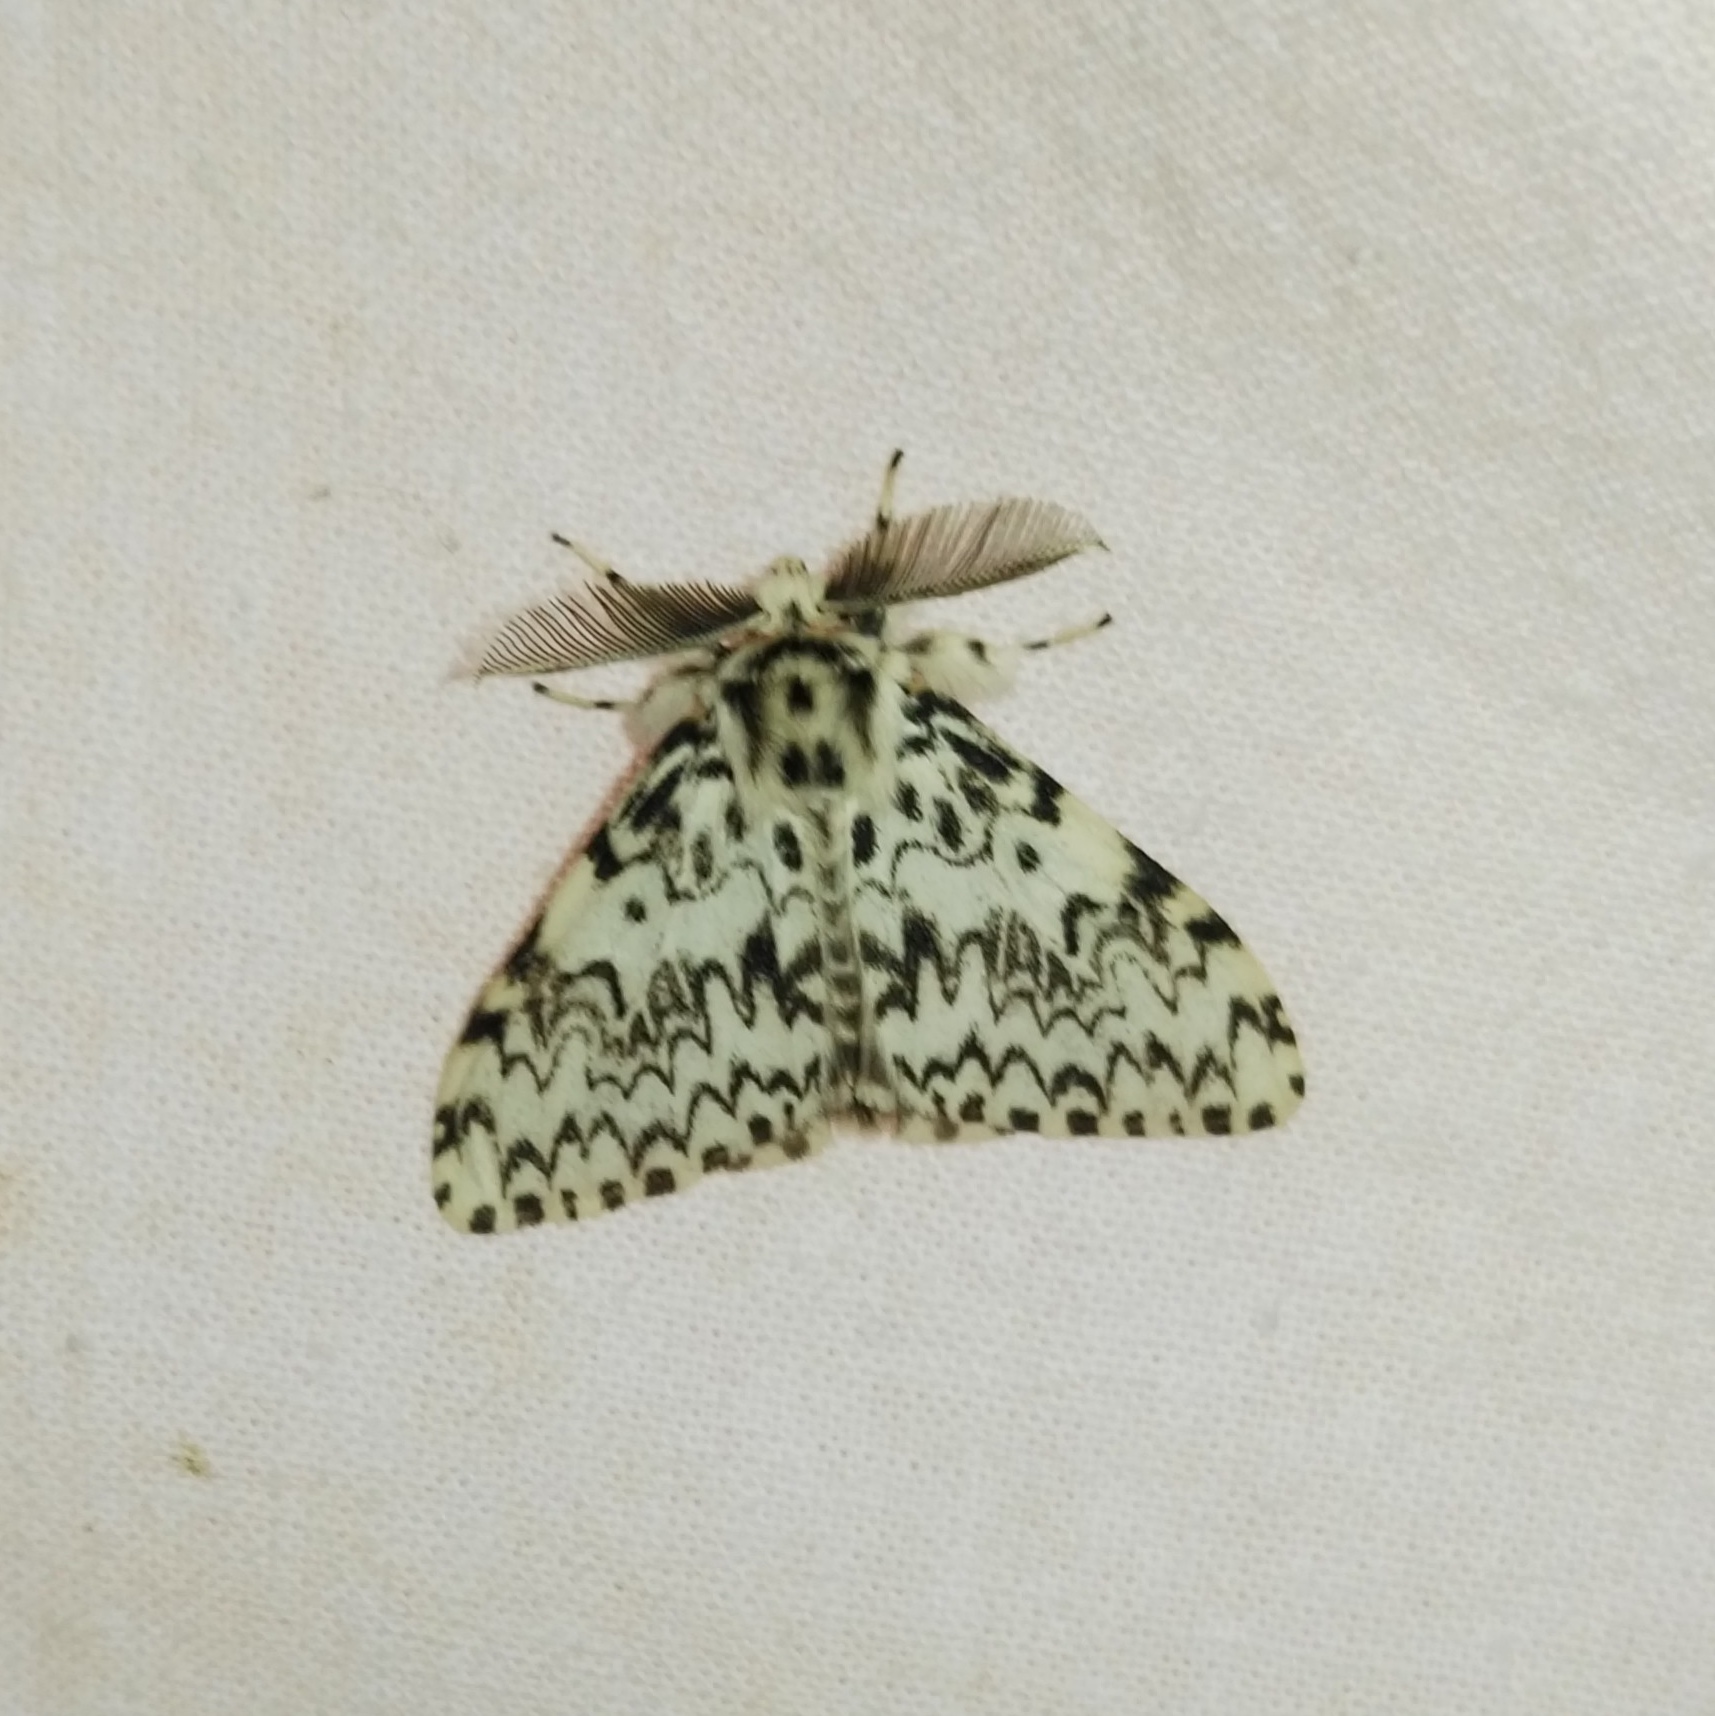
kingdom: Animalia
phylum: Arthropoda
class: Insecta
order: Lepidoptera
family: Erebidae
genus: Lymantria
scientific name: Lymantria monacha
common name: Black arches
